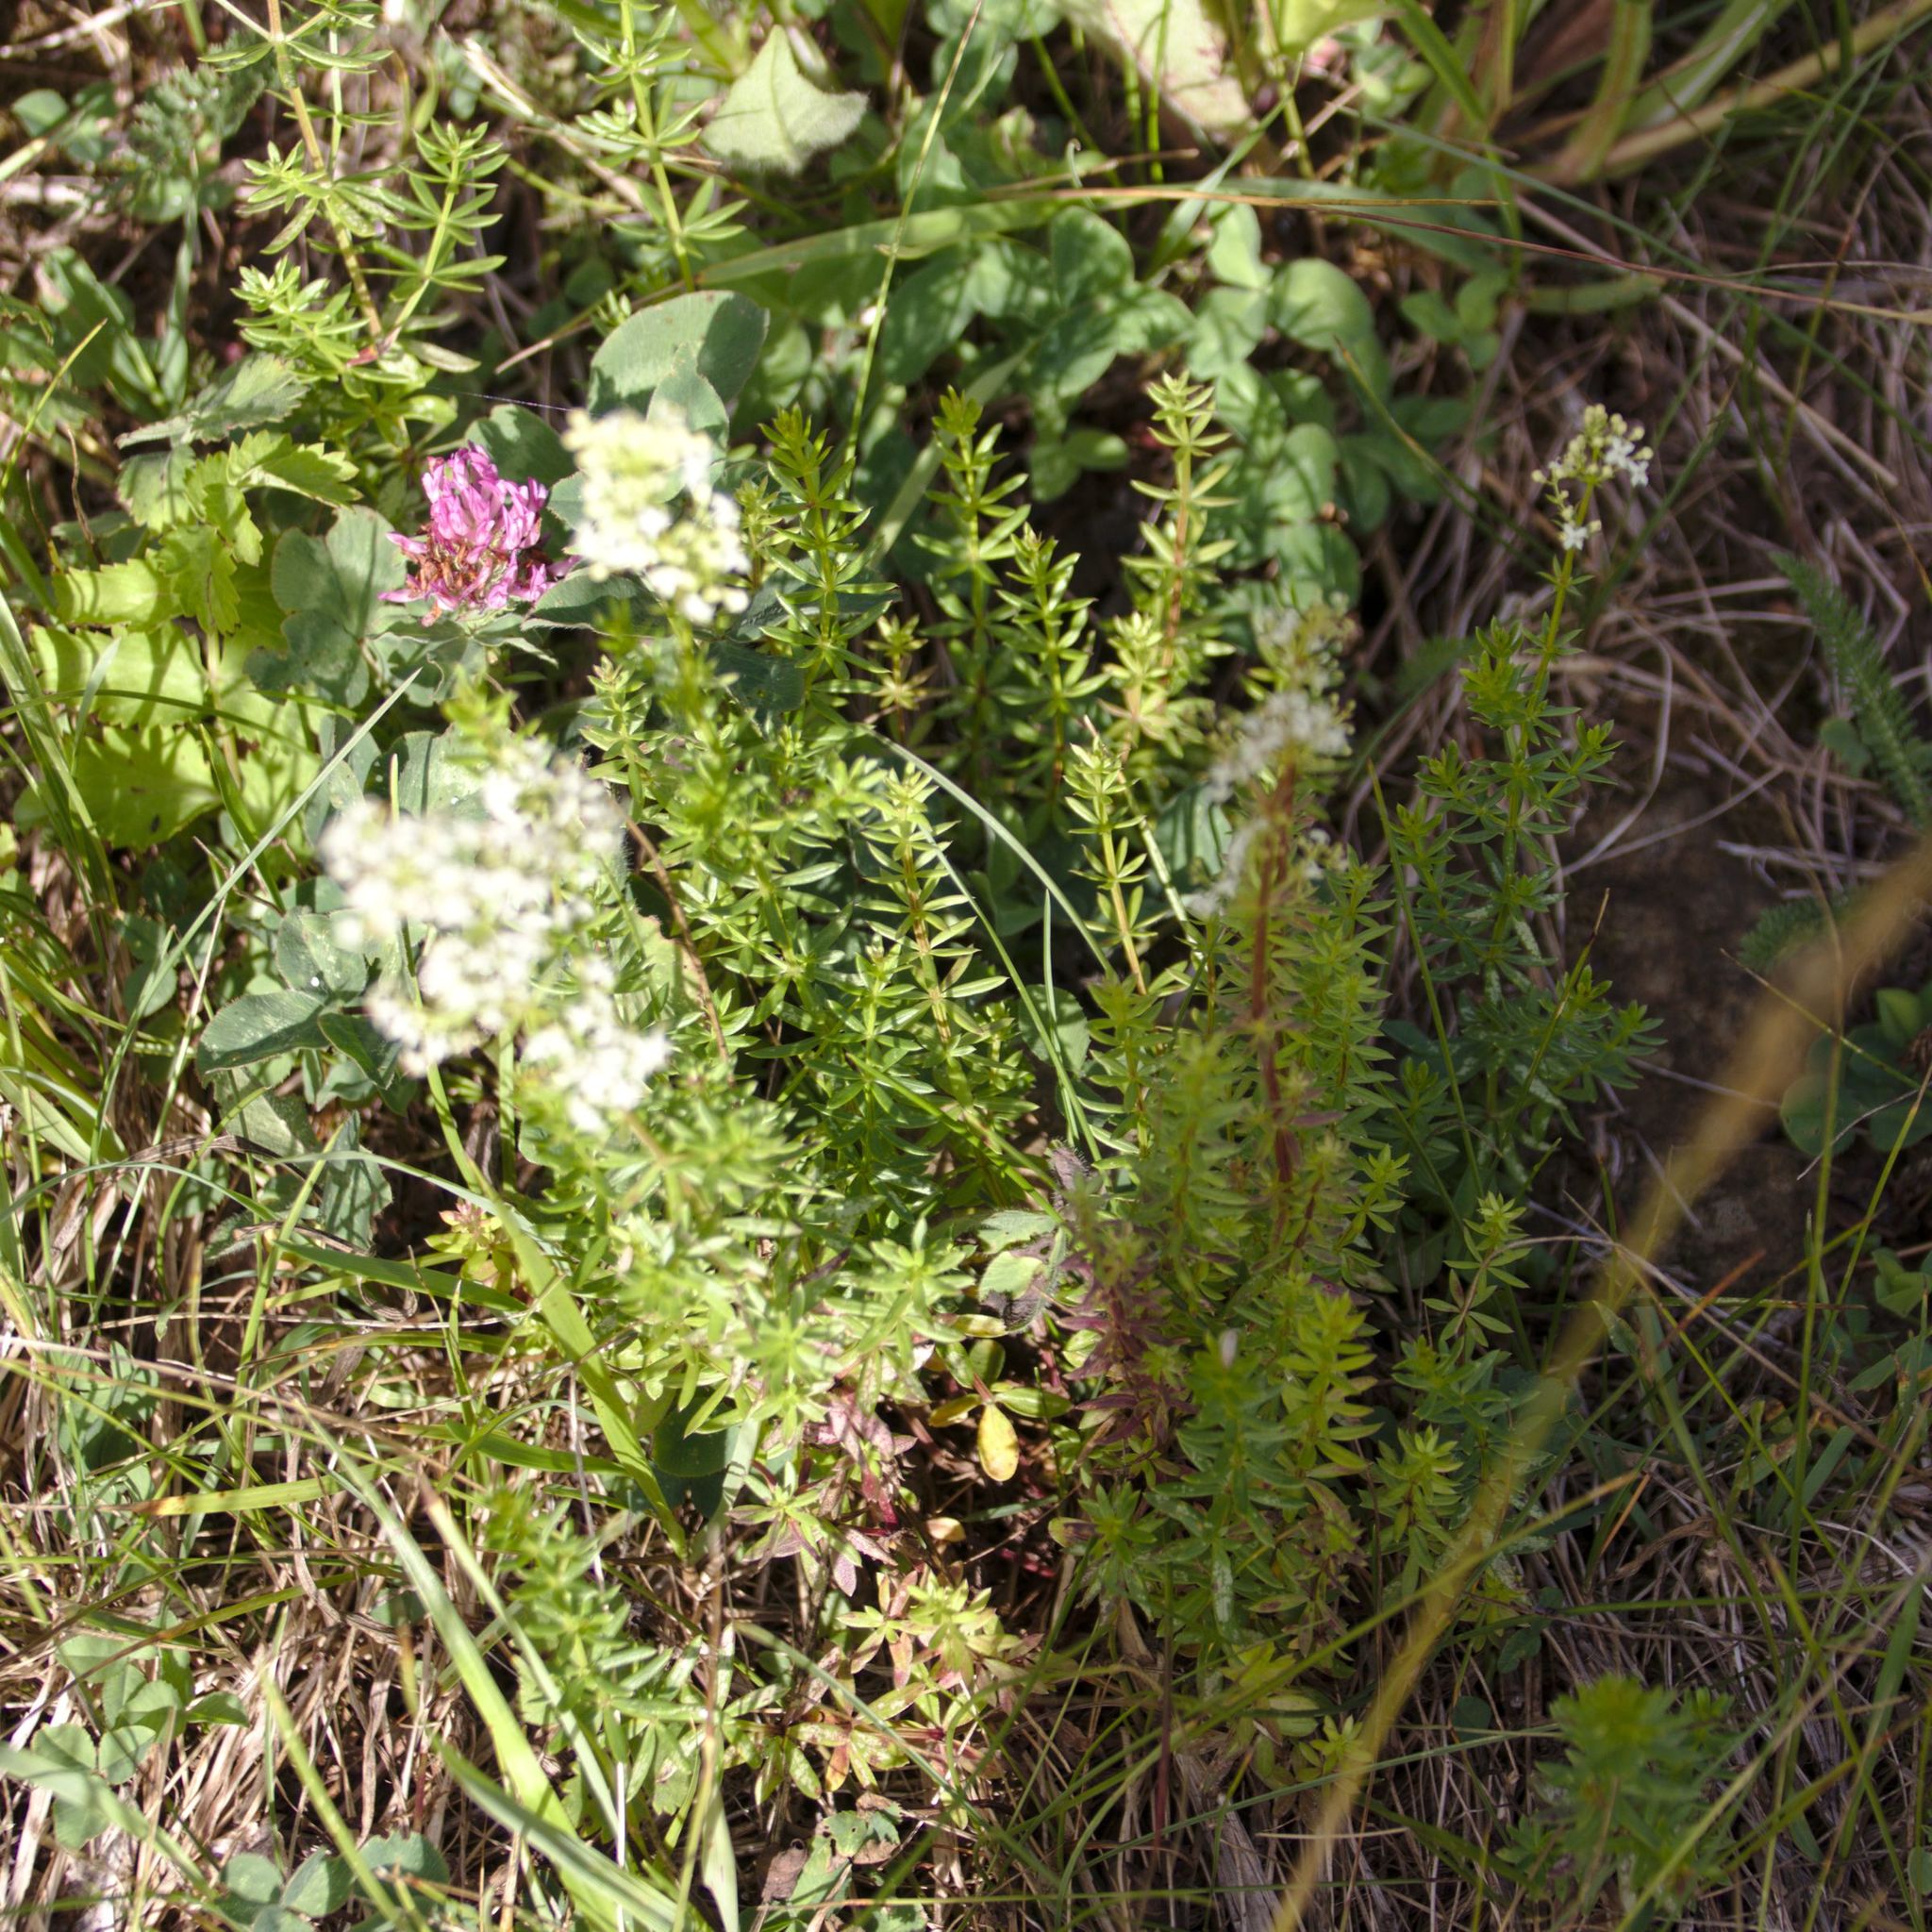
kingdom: Plantae
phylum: Tracheophyta
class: Magnoliopsida
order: Gentianales
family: Rubiaceae
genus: Galium
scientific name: Galium mollugo
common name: Hedge bedstraw
